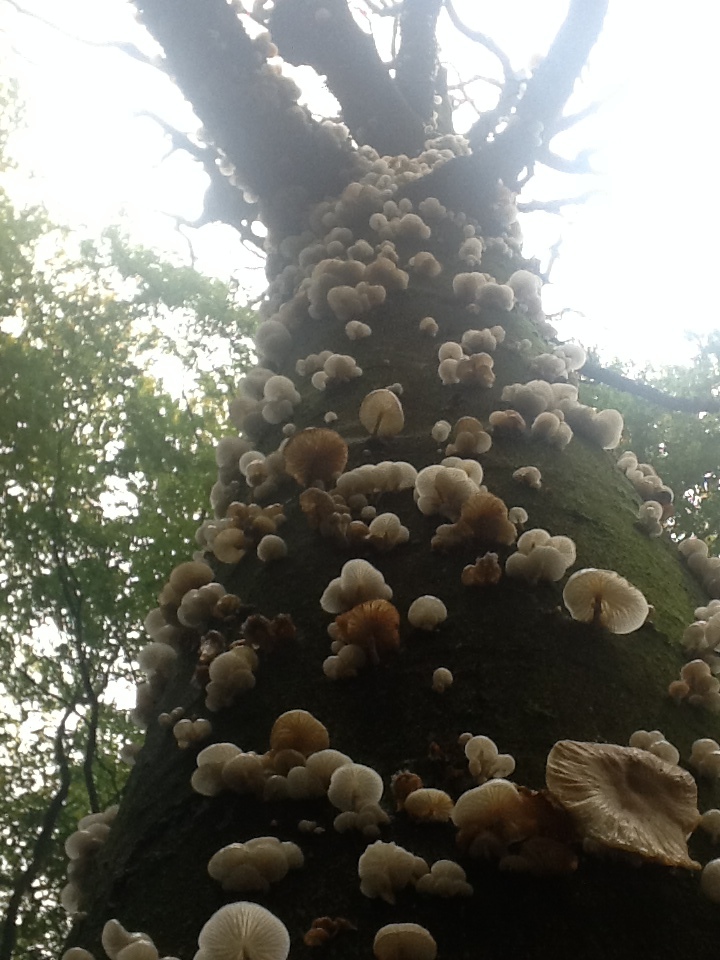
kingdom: Fungi
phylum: Basidiomycota
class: Agaricomycetes
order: Agaricales
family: Physalacriaceae
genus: Mucidula
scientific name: Mucidula mucida
